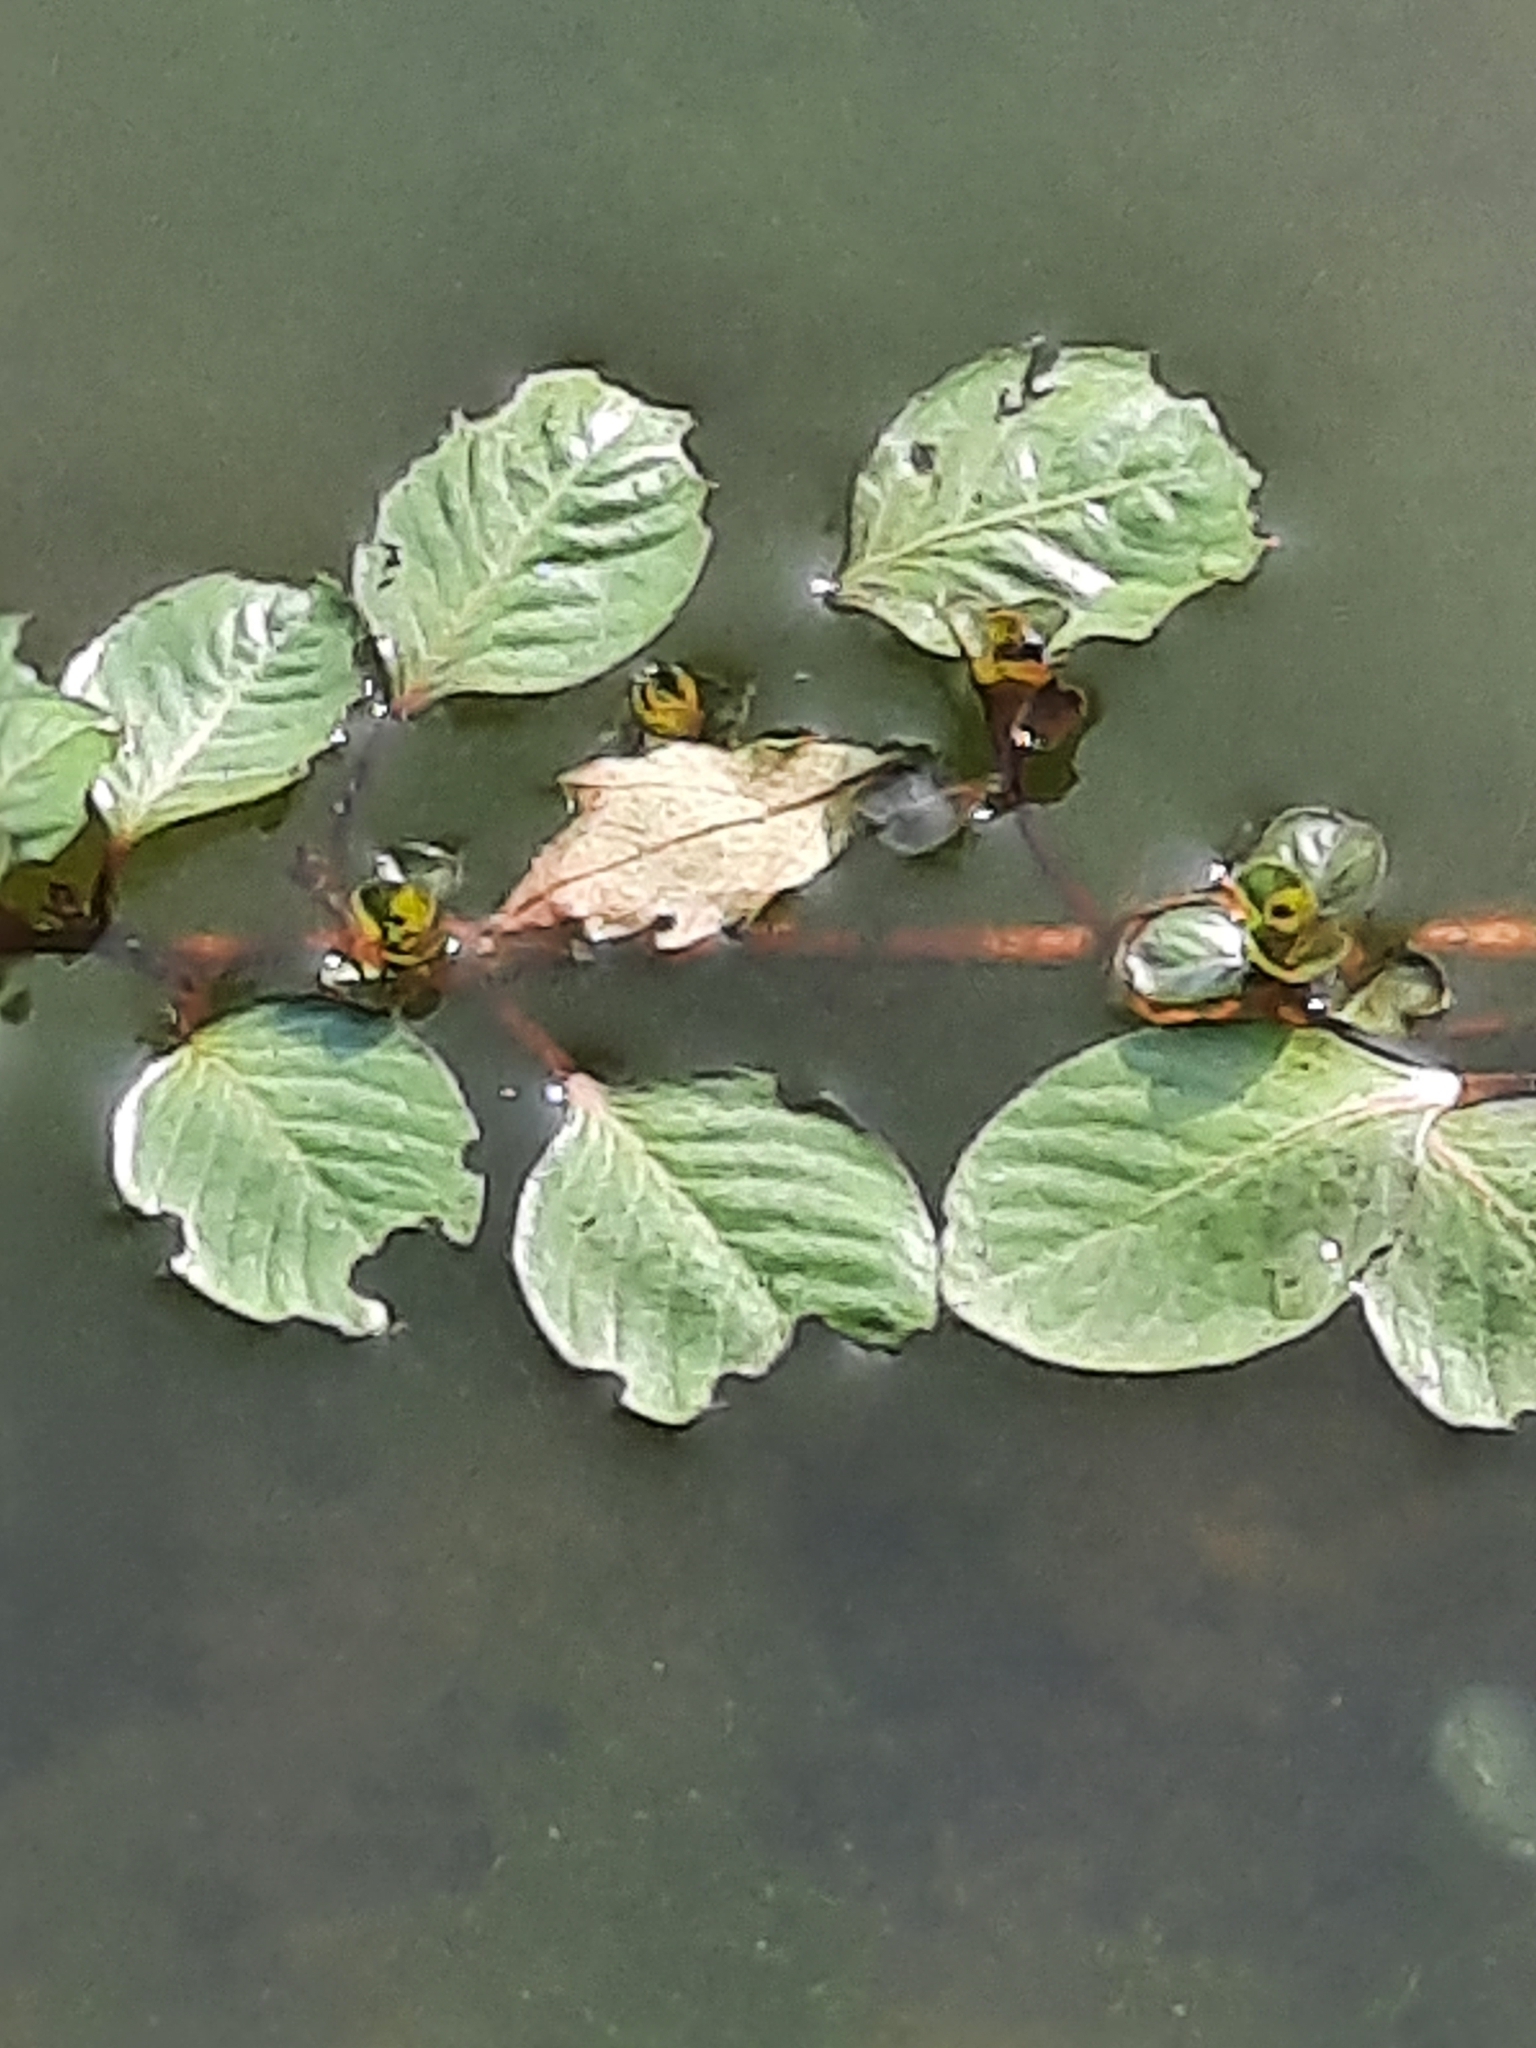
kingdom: Plantae
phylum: Tracheophyta
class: Magnoliopsida
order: Myrtales
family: Onagraceae
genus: Ludwigia
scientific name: Ludwigia peploides
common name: Floating primrose-willow
